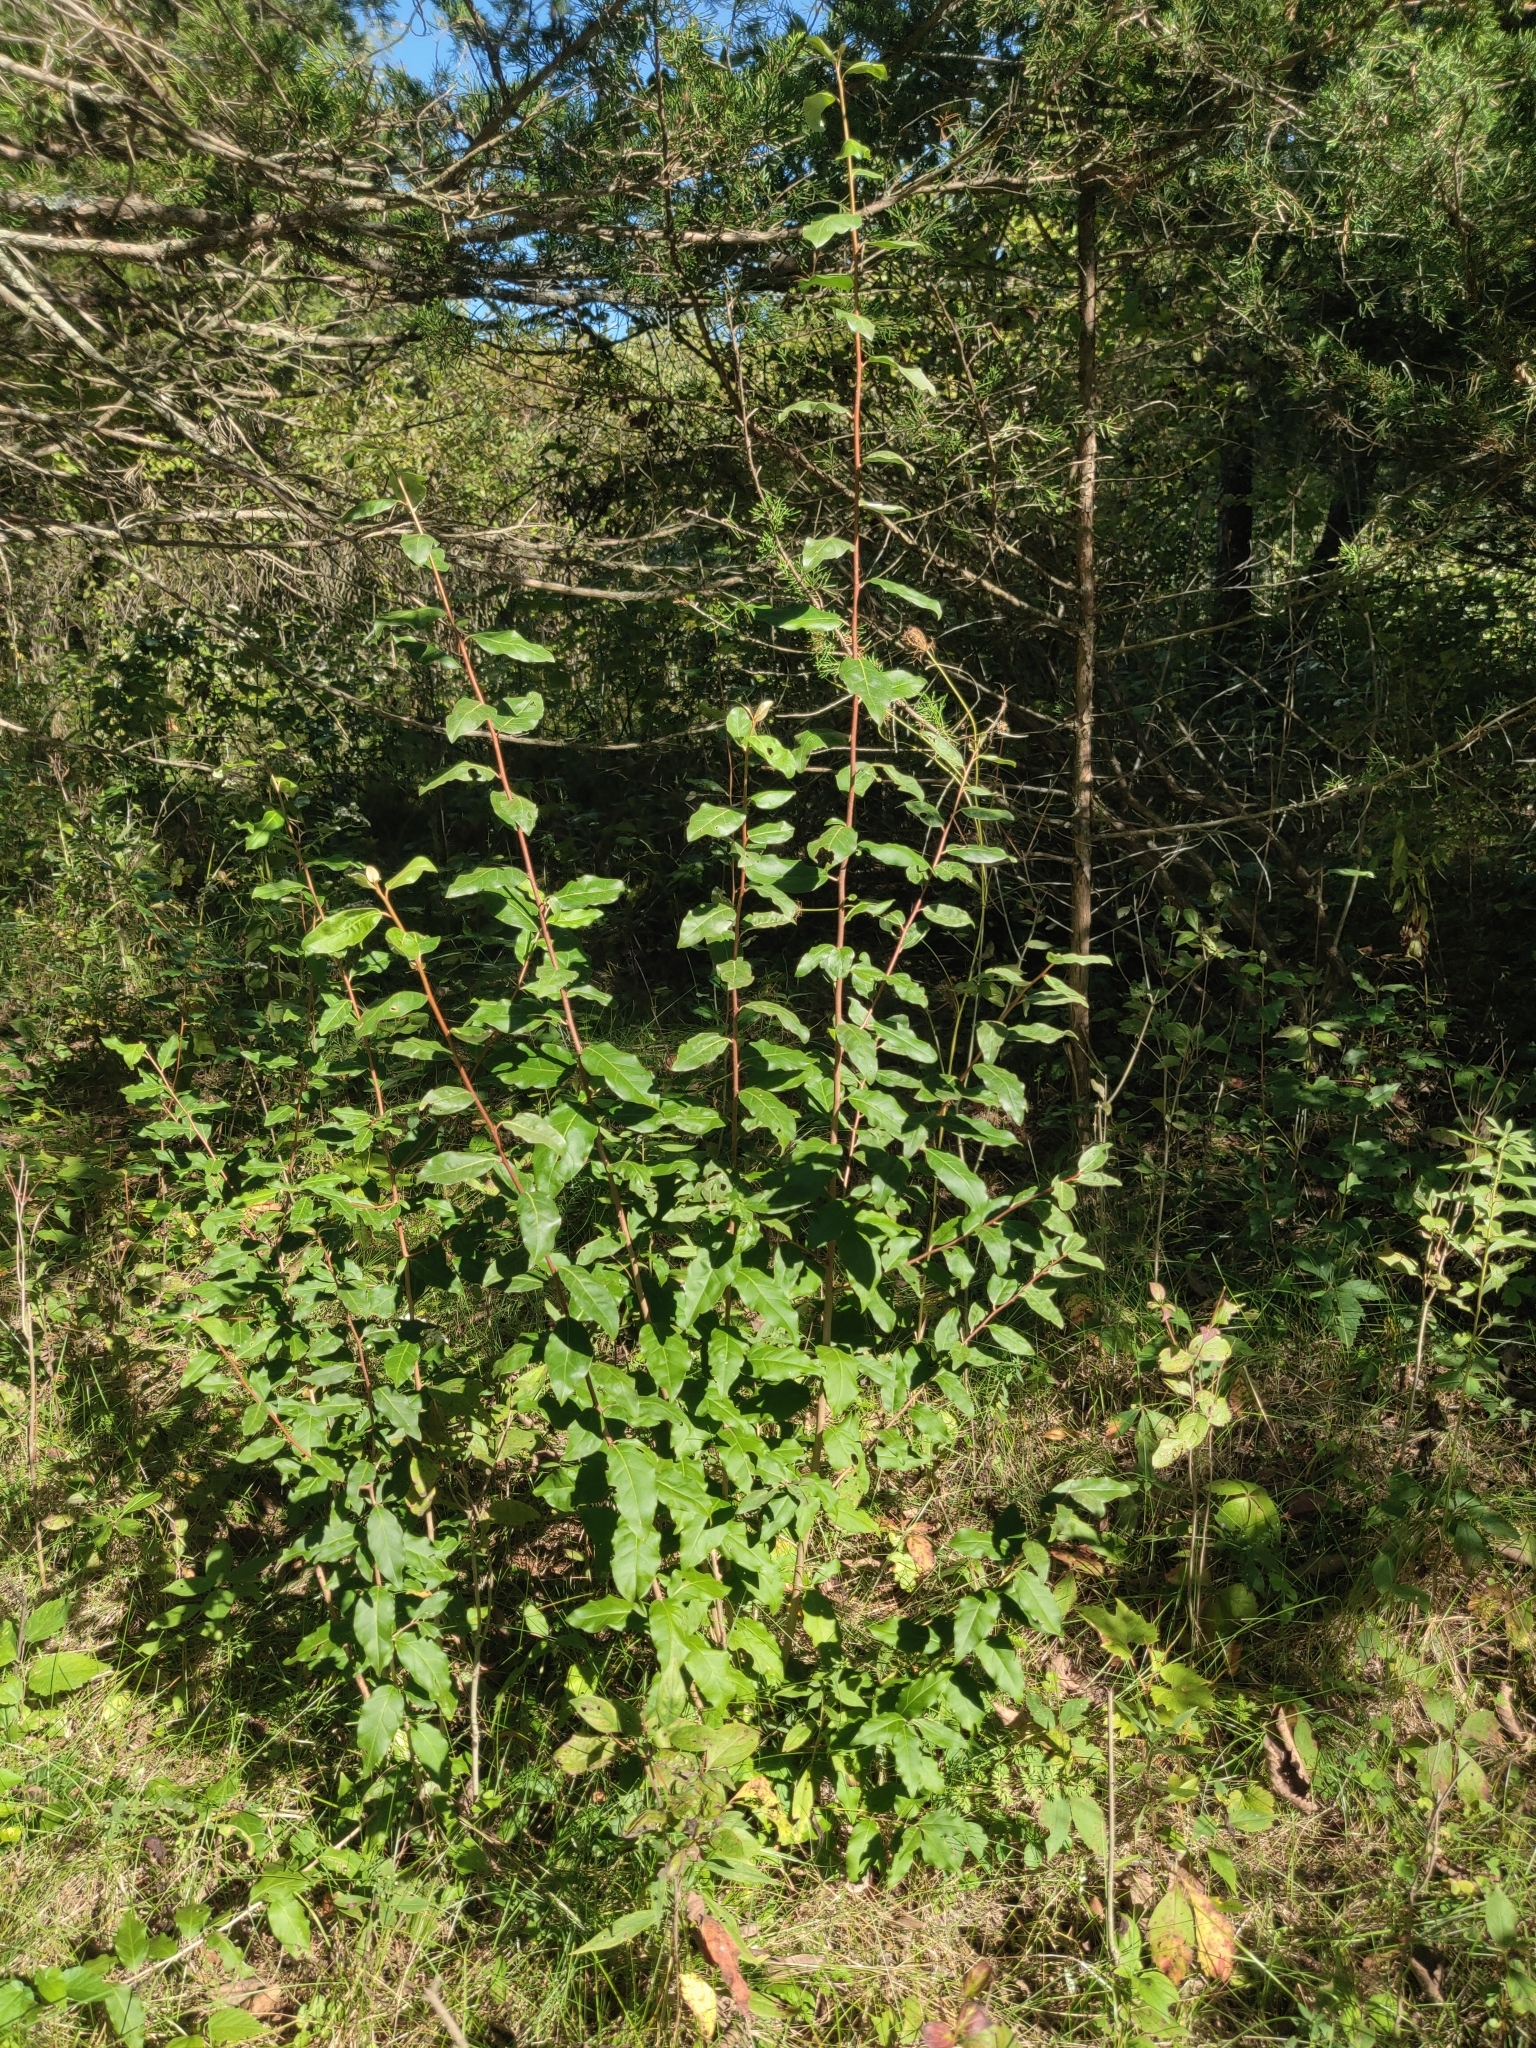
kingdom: Plantae
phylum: Tracheophyta
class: Magnoliopsida
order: Rosales
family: Elaeagnaceae
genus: Elaeagnus
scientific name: Elaeagnus umbellata
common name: Autumn olive
